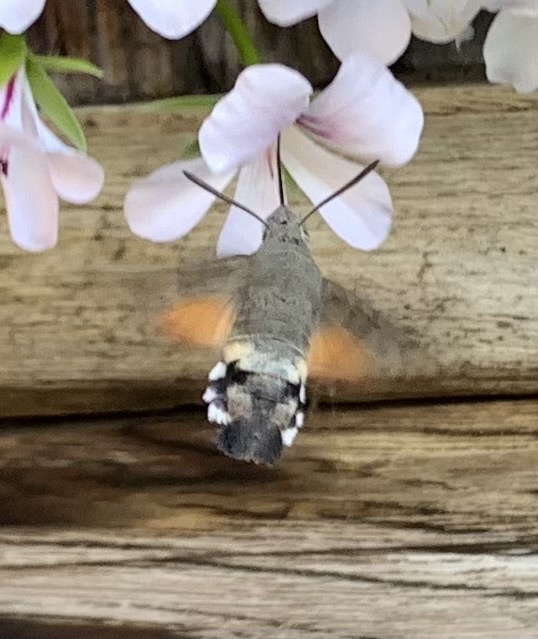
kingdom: Animalia
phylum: Arthropoda
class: Insecta
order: Lepidoptera
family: Sphingidae
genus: Macroglossum
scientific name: Macroglossum stellatarum
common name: Humming-bird hawk-moth
